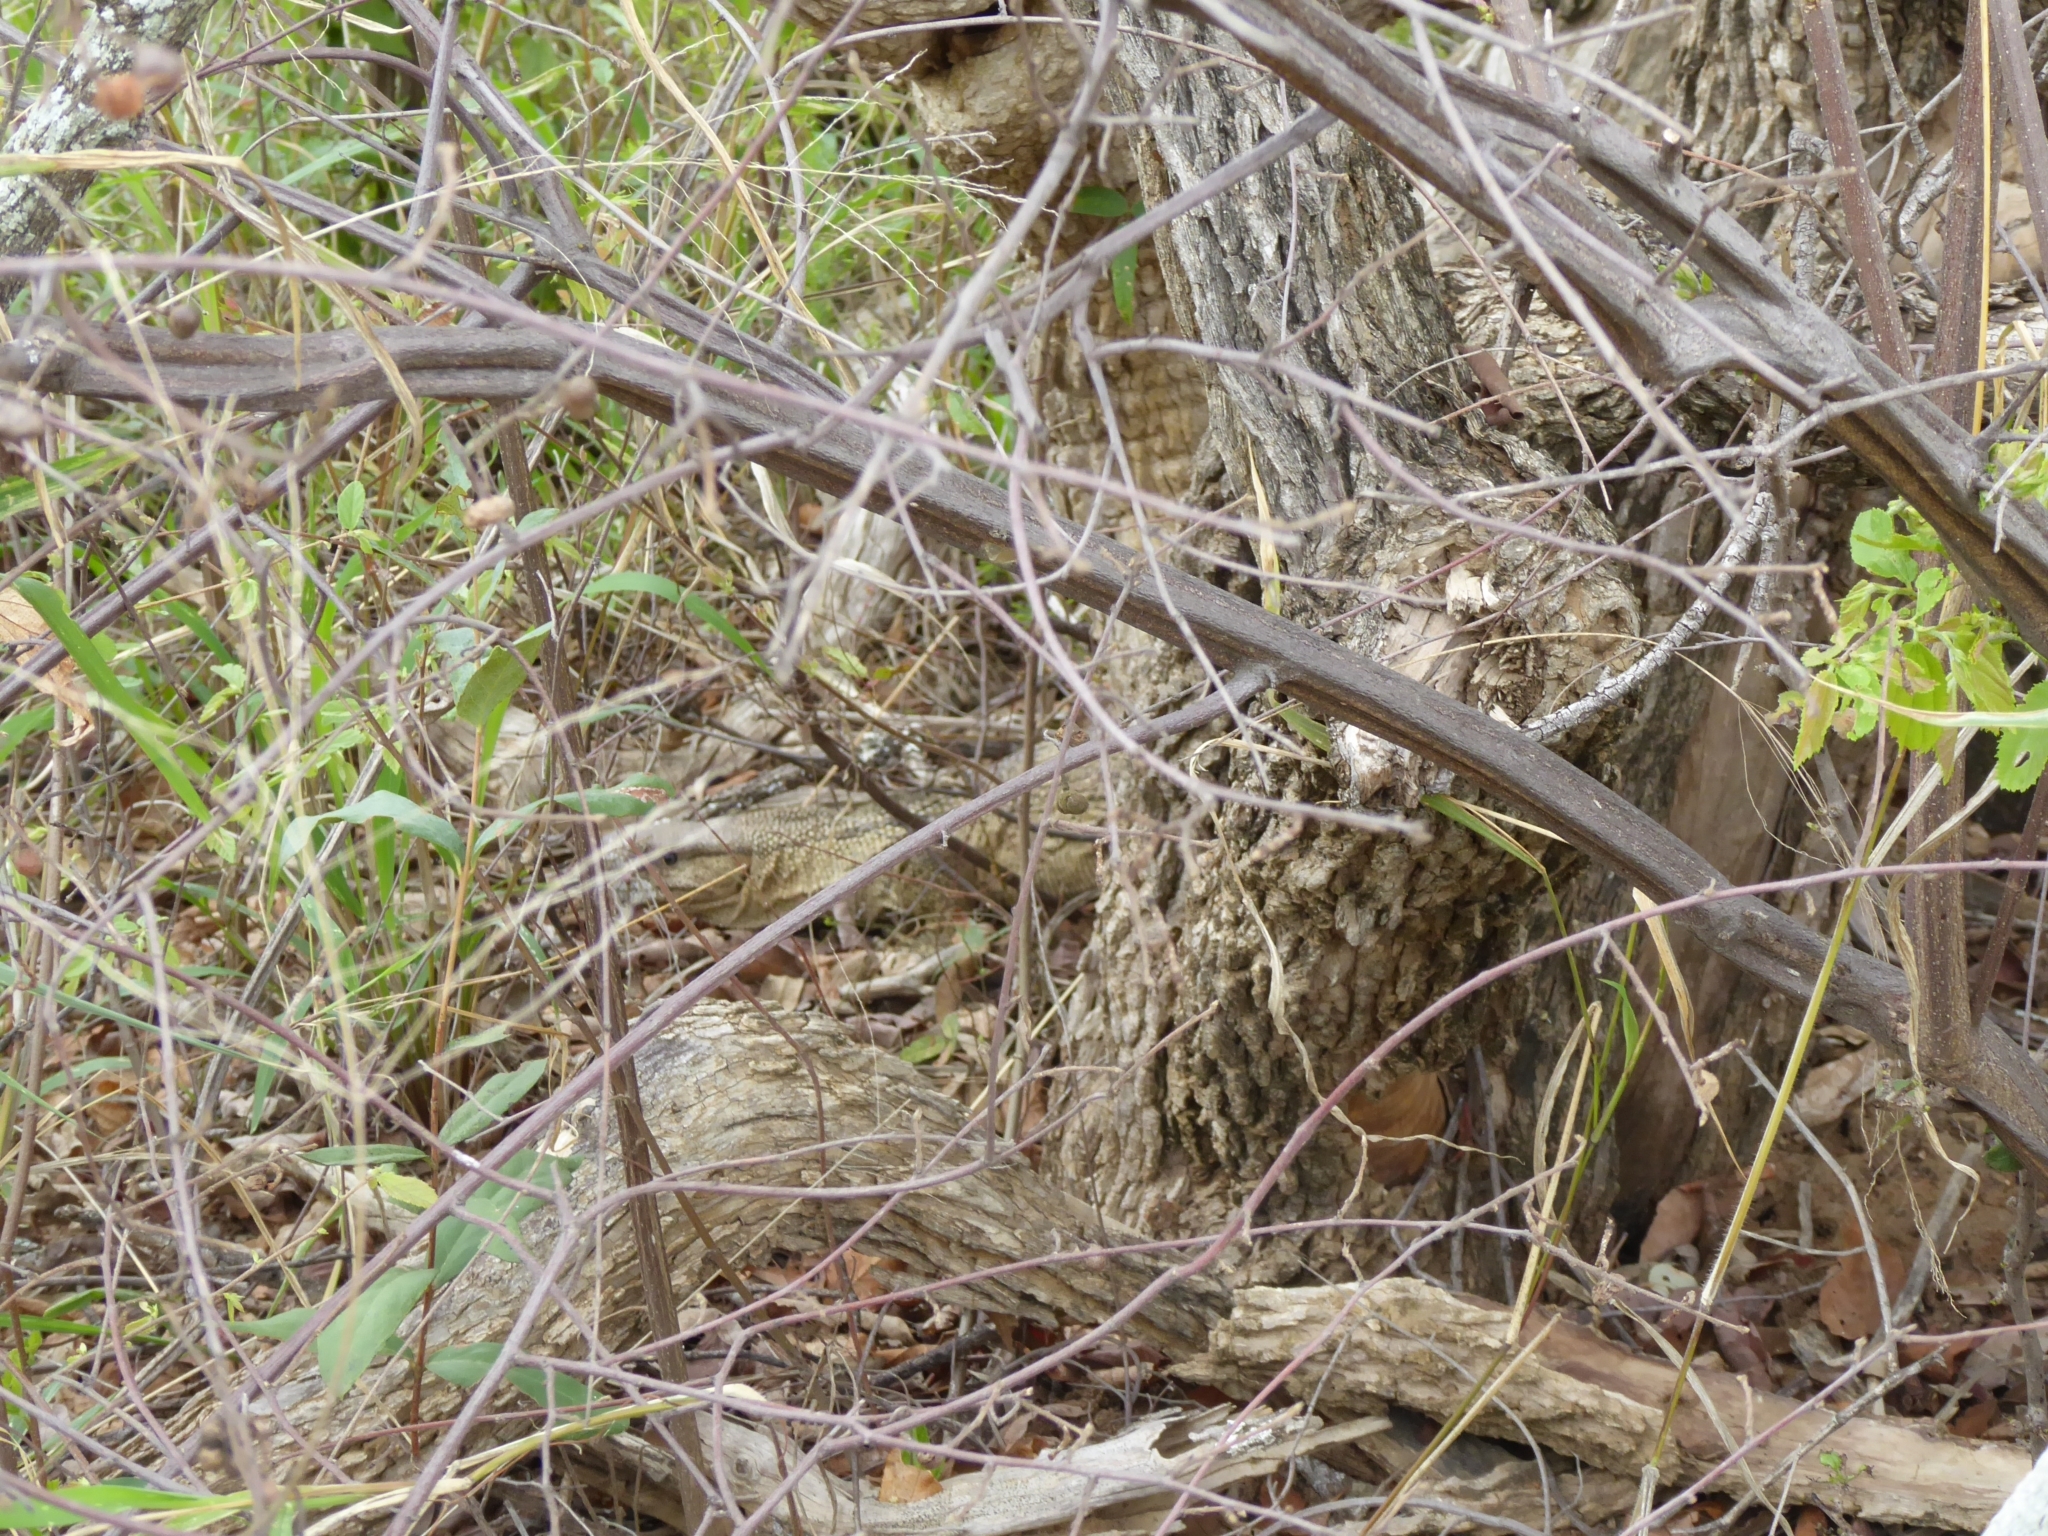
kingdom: Animalia
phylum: Chordata
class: Squamata
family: Varanidae
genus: Varanus
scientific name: Varanus albigularis
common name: White-throated monitor
